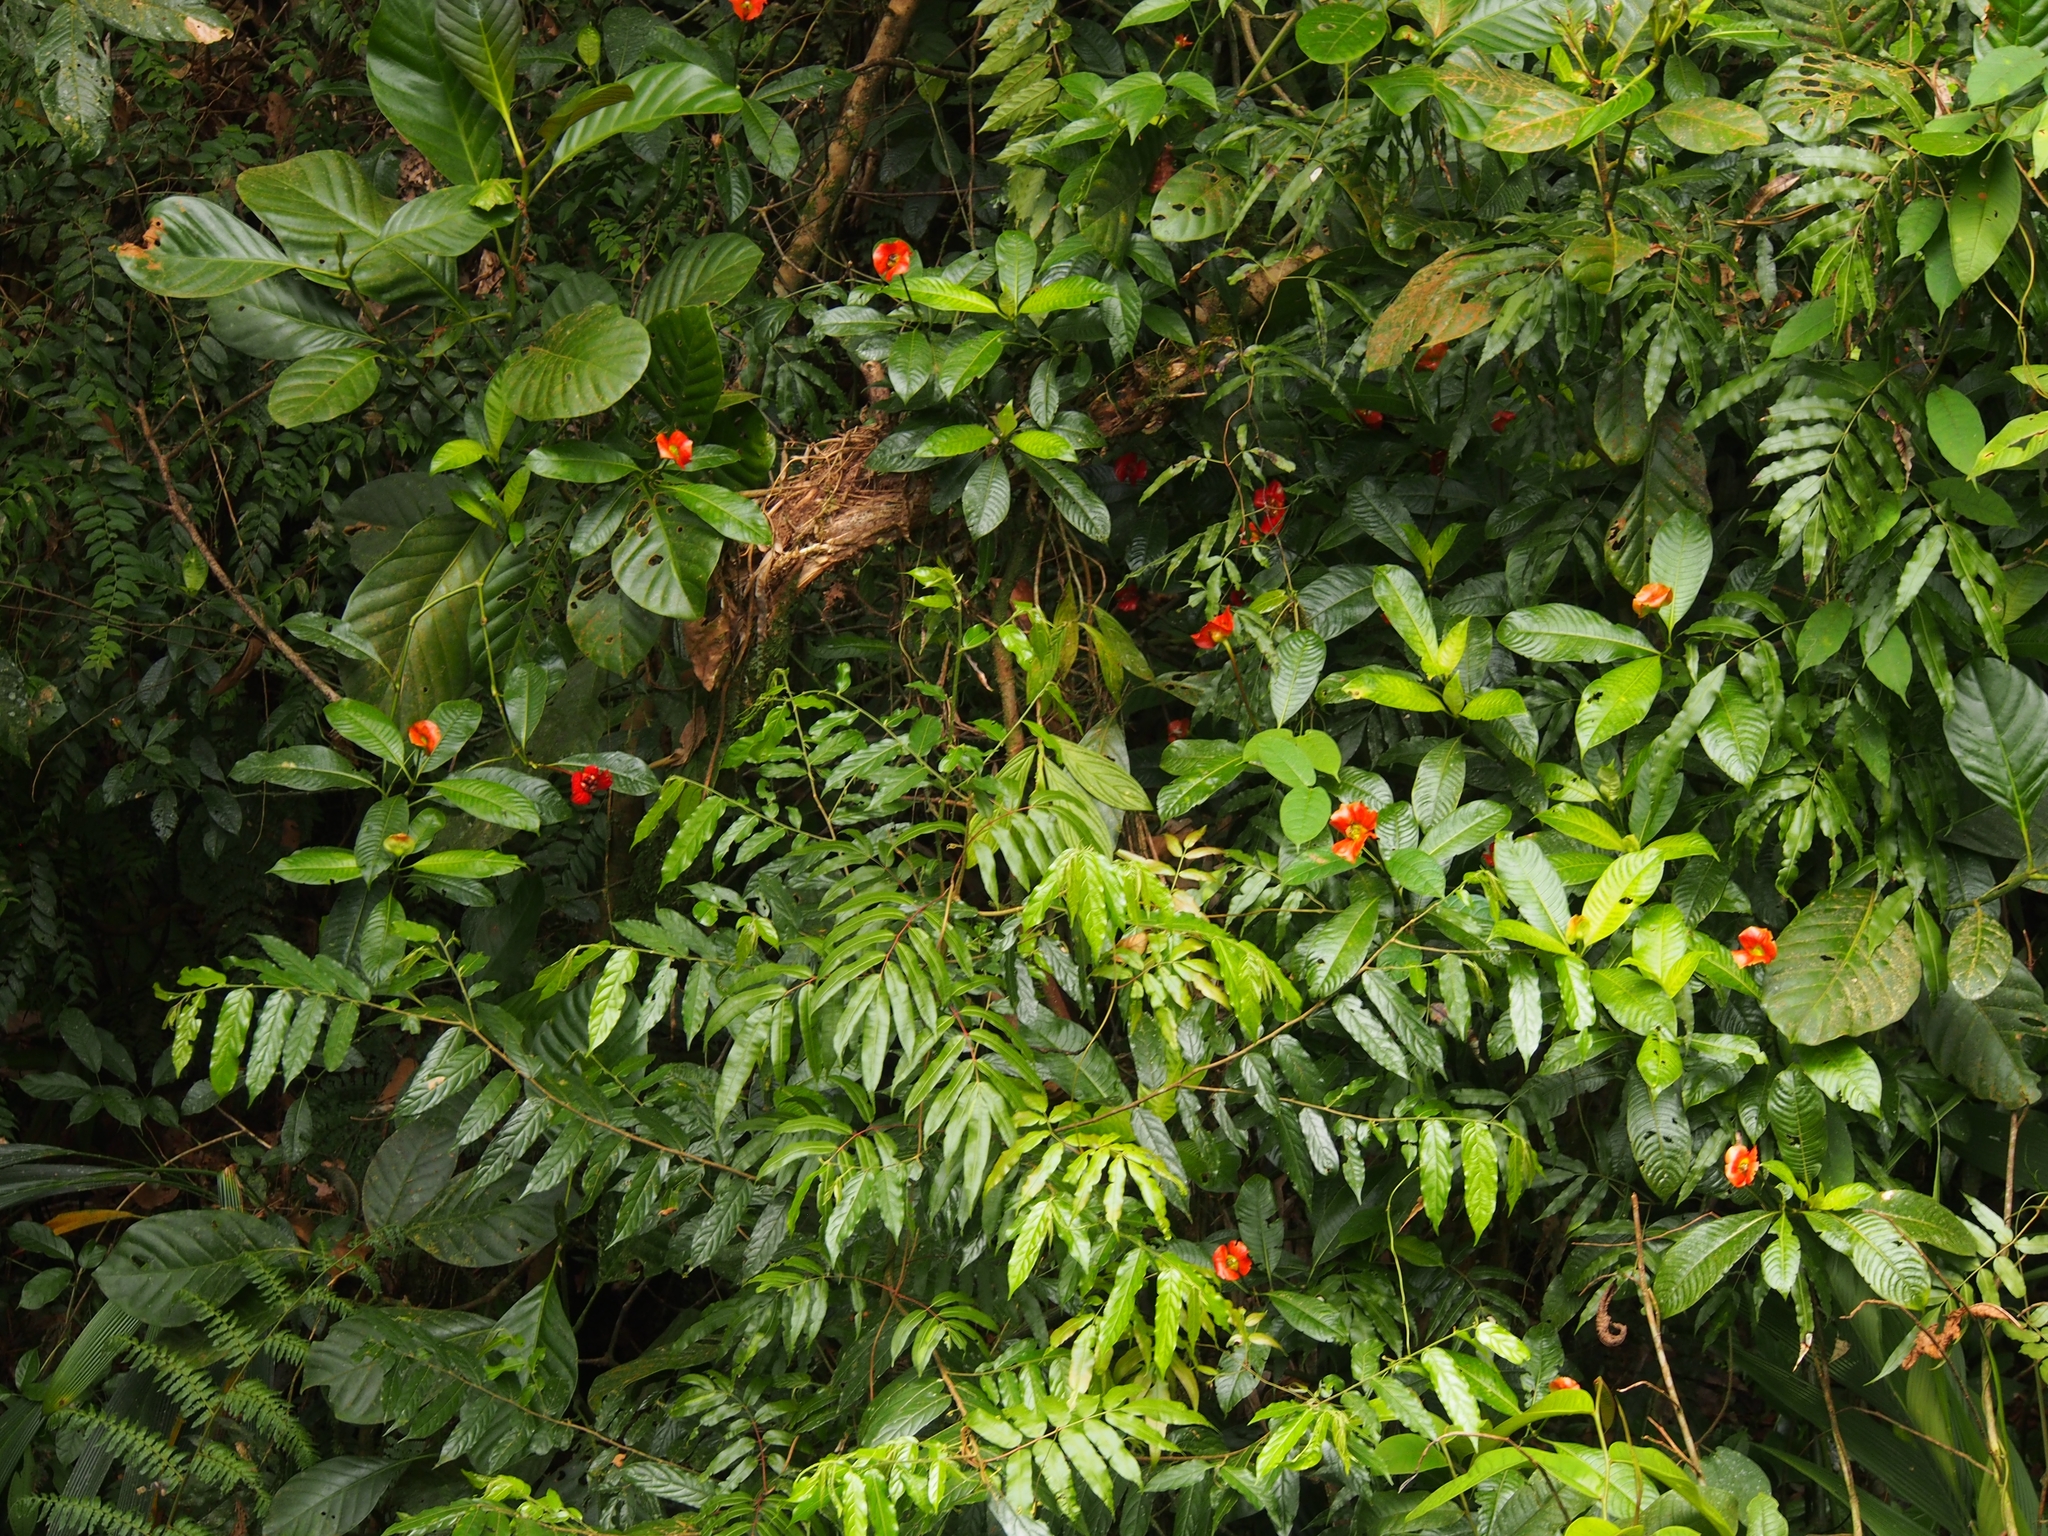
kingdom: Plantae
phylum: Tracheophyta
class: Magnoliopsida
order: Gentianales
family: Rubiaceae
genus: Palicourea
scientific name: Palicourea elata
